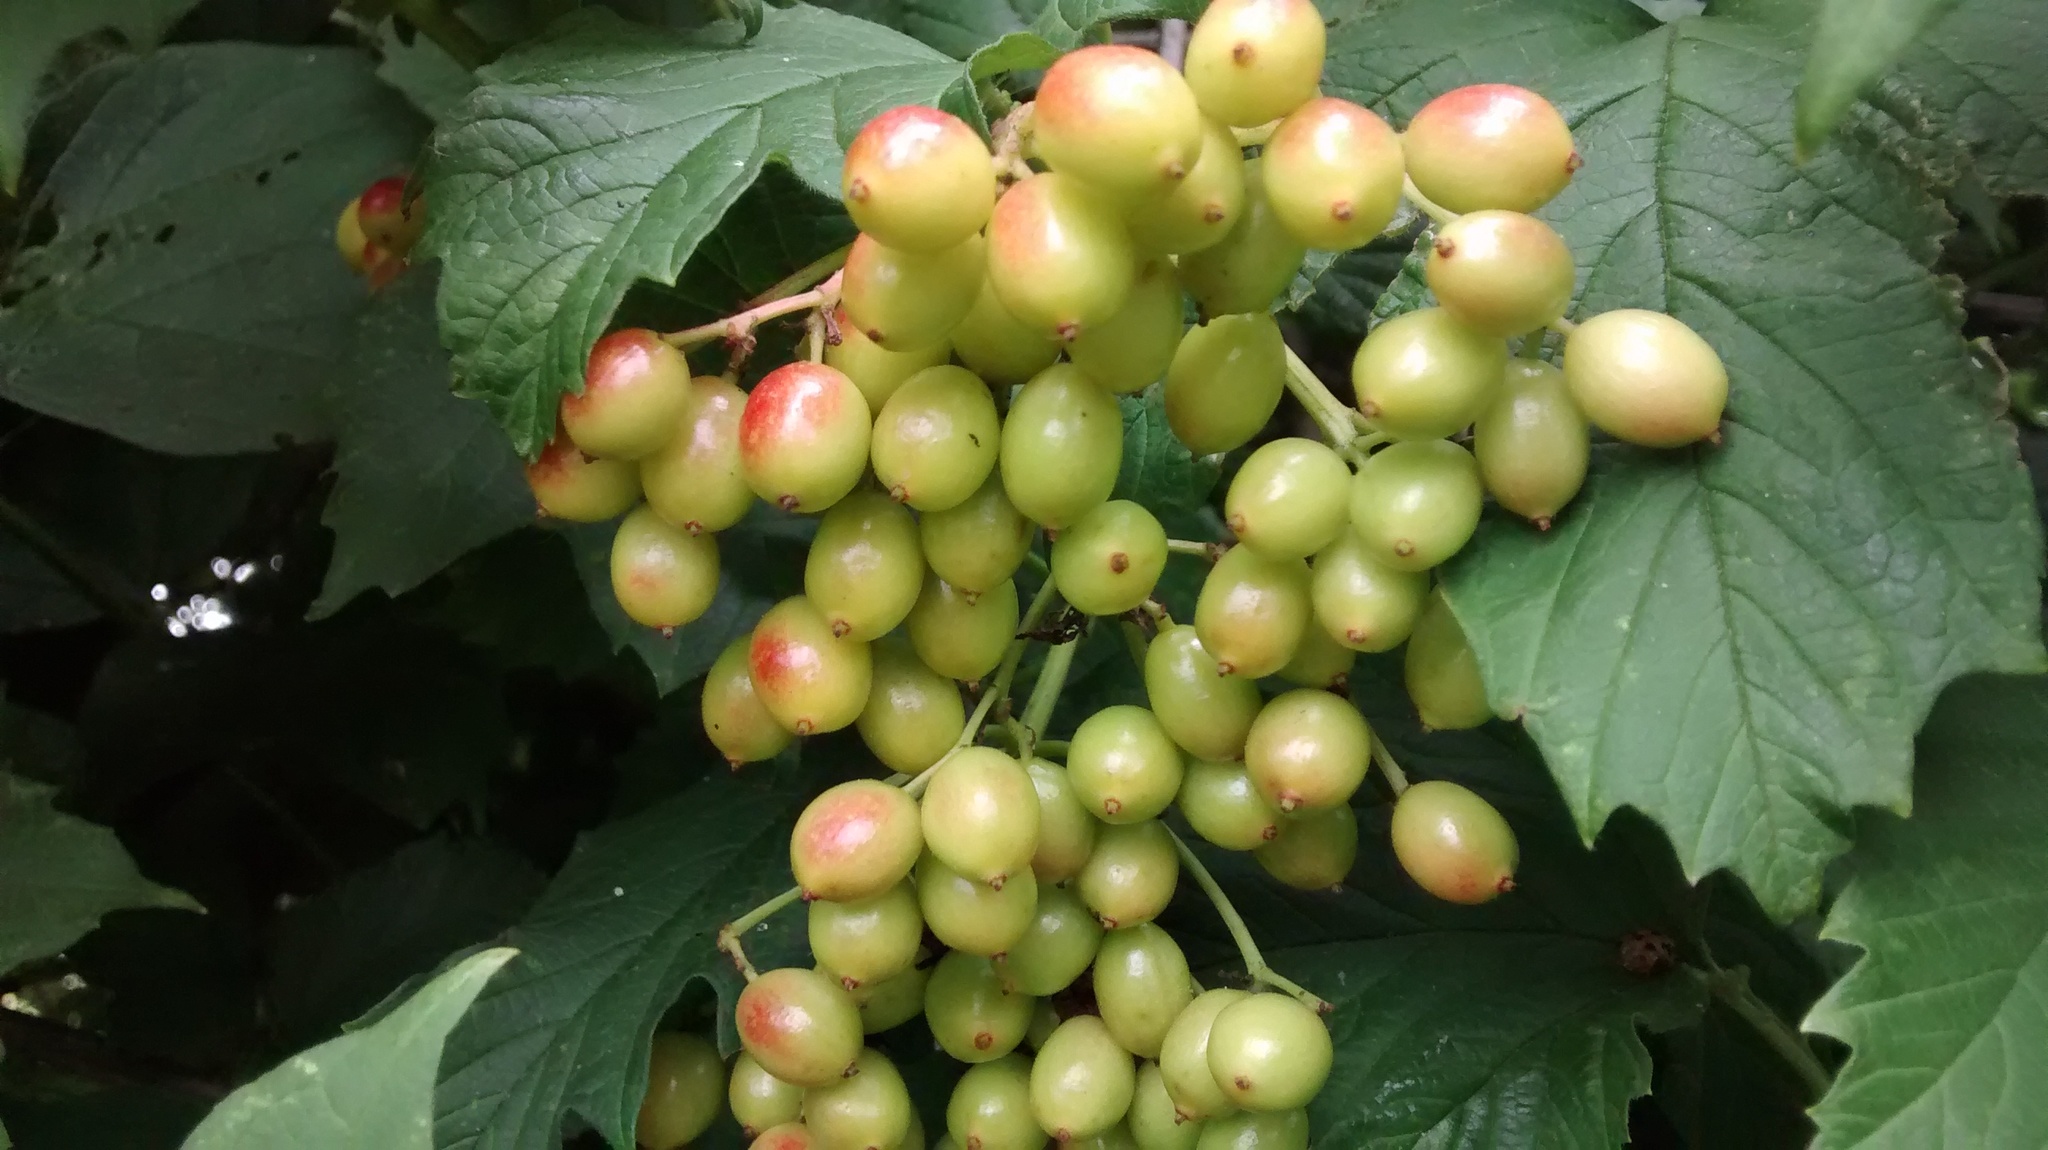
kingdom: Plantae
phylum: Tracheophyta
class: Magnoliopsida
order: Dipsacales
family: Viburnaceae
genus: Viburnum
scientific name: Viburnum opulus
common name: Guelder-rose
